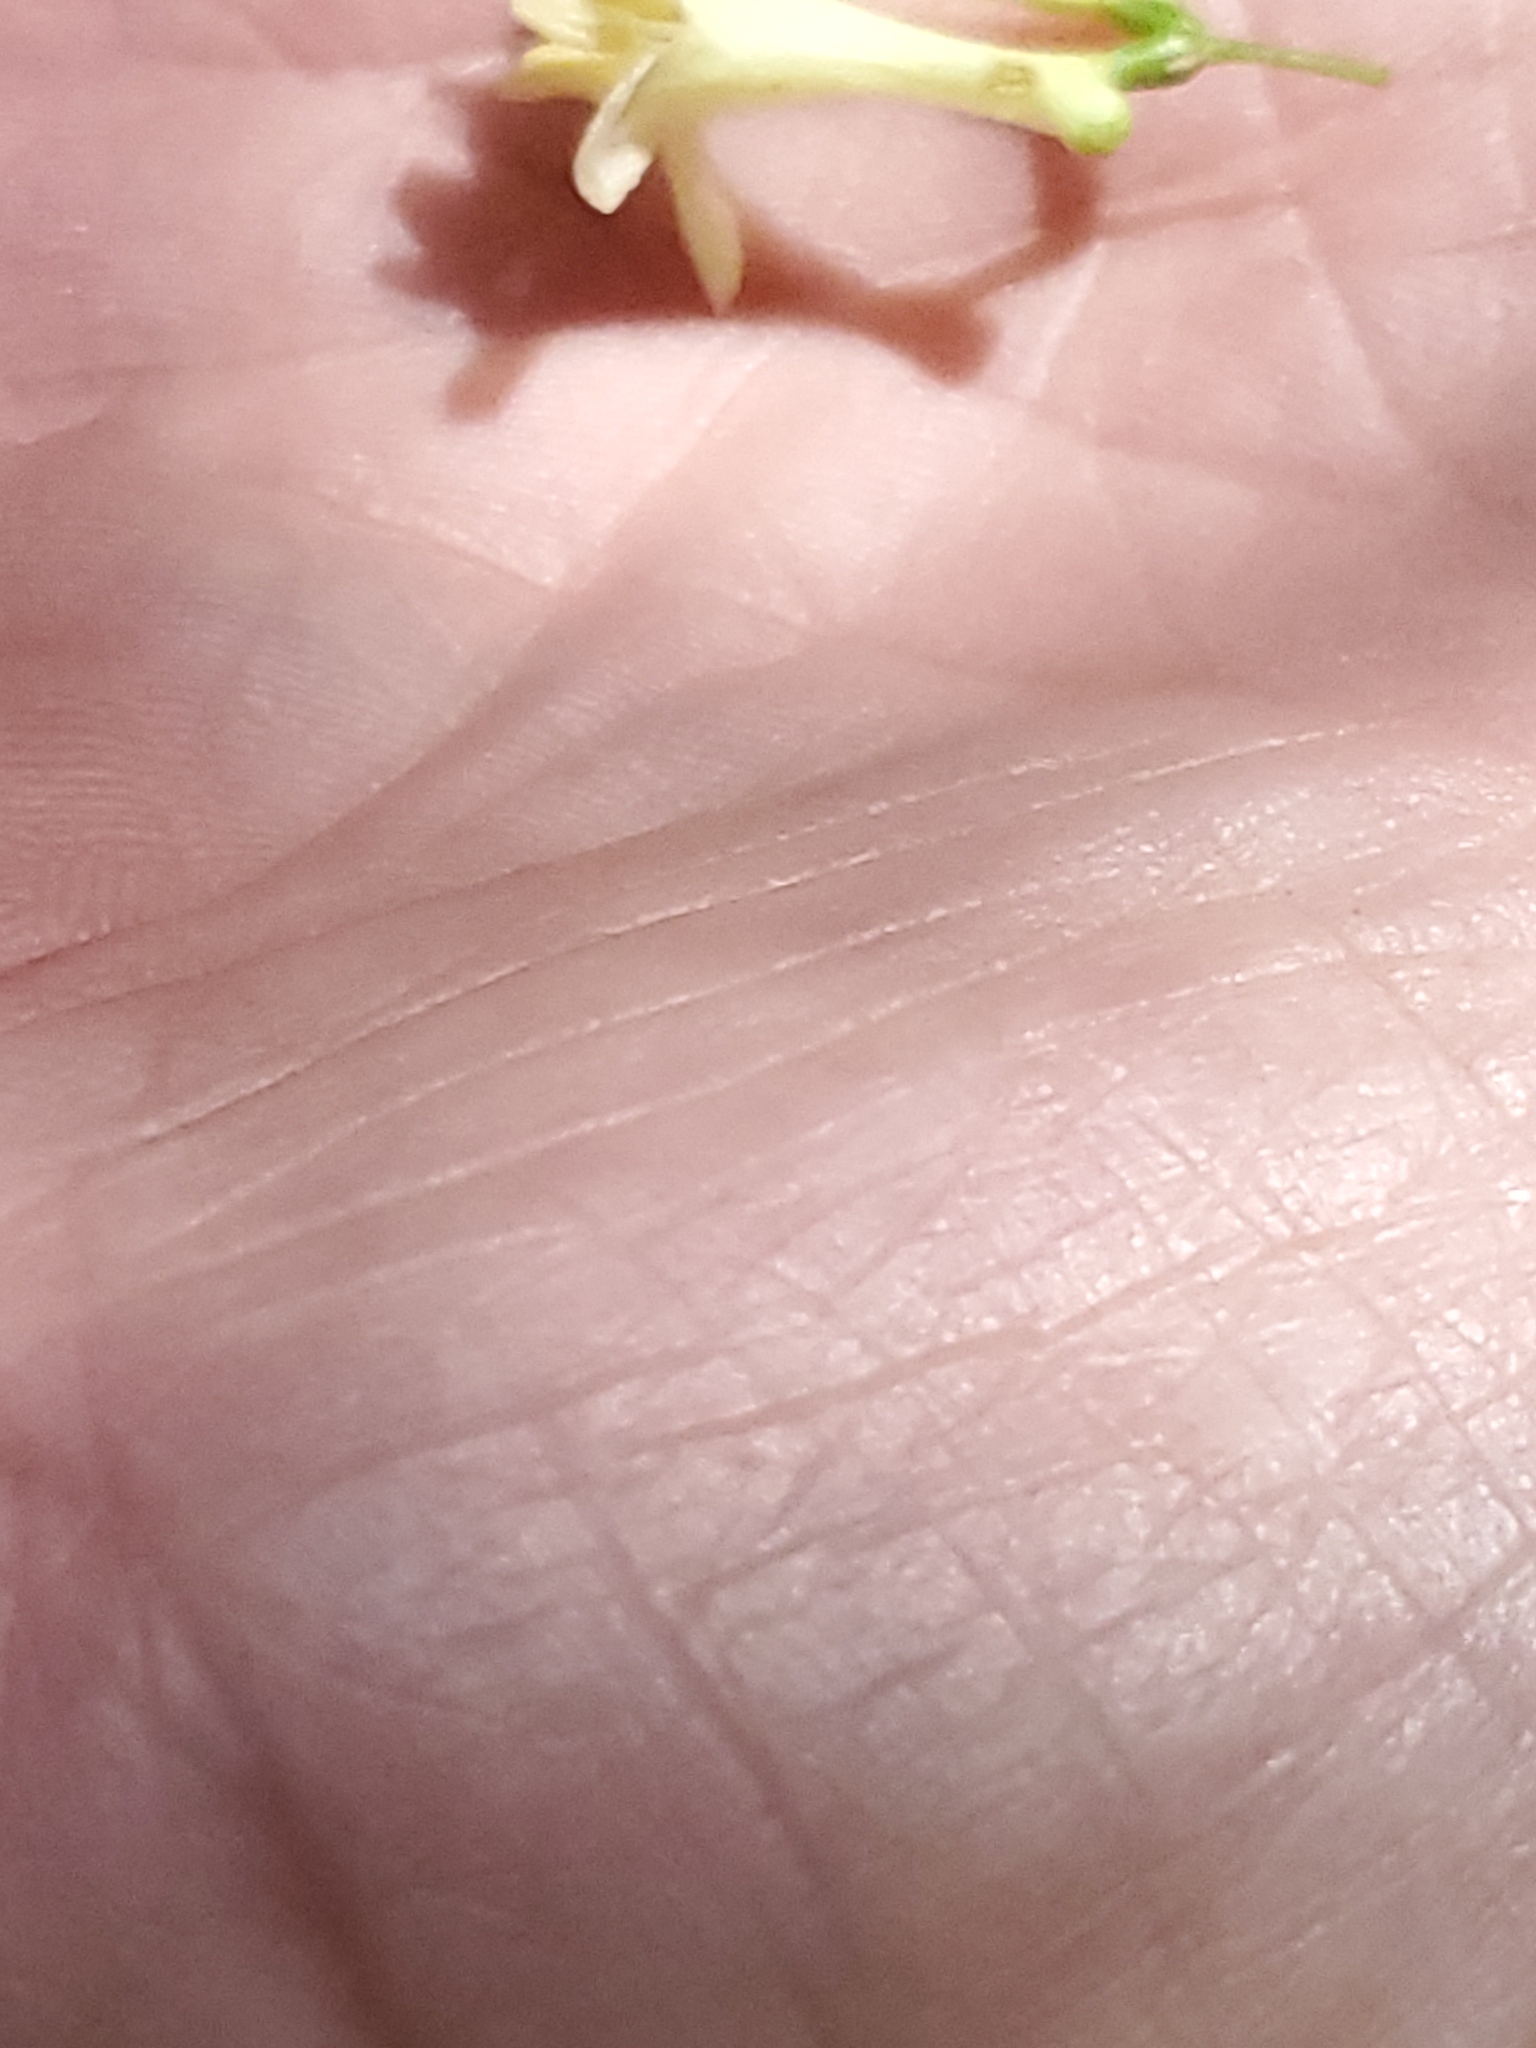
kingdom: Plantae
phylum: Tracheophyta
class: Magnoliopsida
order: Dipsacales
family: Caprifoliaceae
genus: Lonicera
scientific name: Lonicera utahensis
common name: Utah honeysuckle
